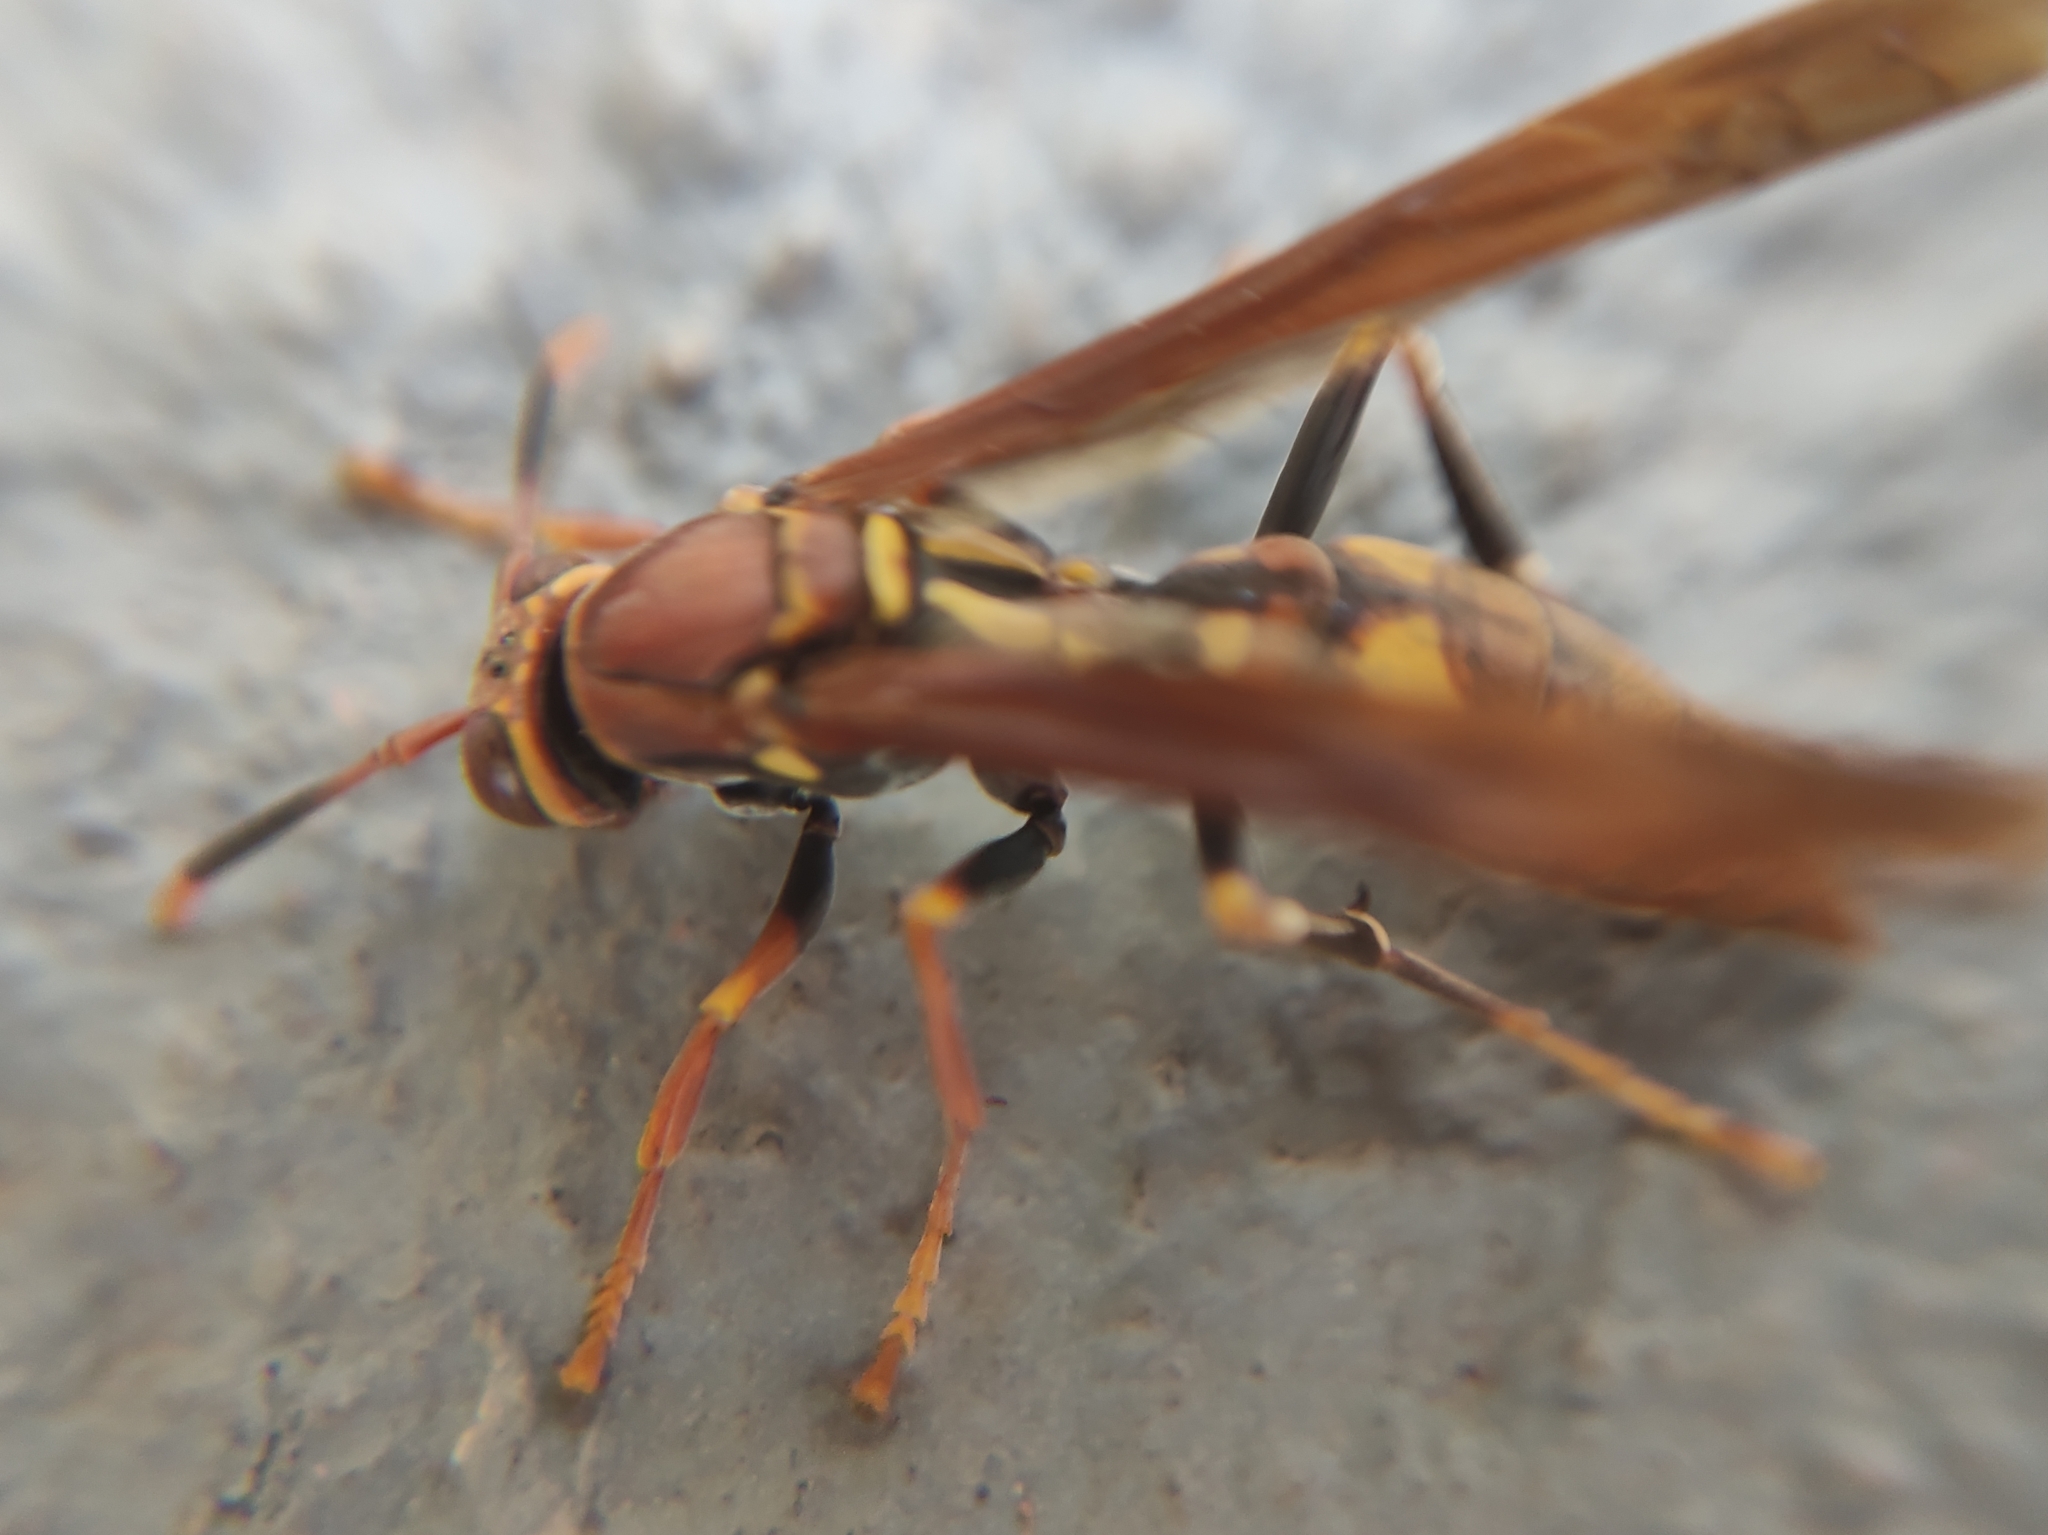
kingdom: Animalia
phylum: Arthropoda
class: Insecta
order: Hymenoptera
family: Eumenidae
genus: Polistes
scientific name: Polistes versicolor
